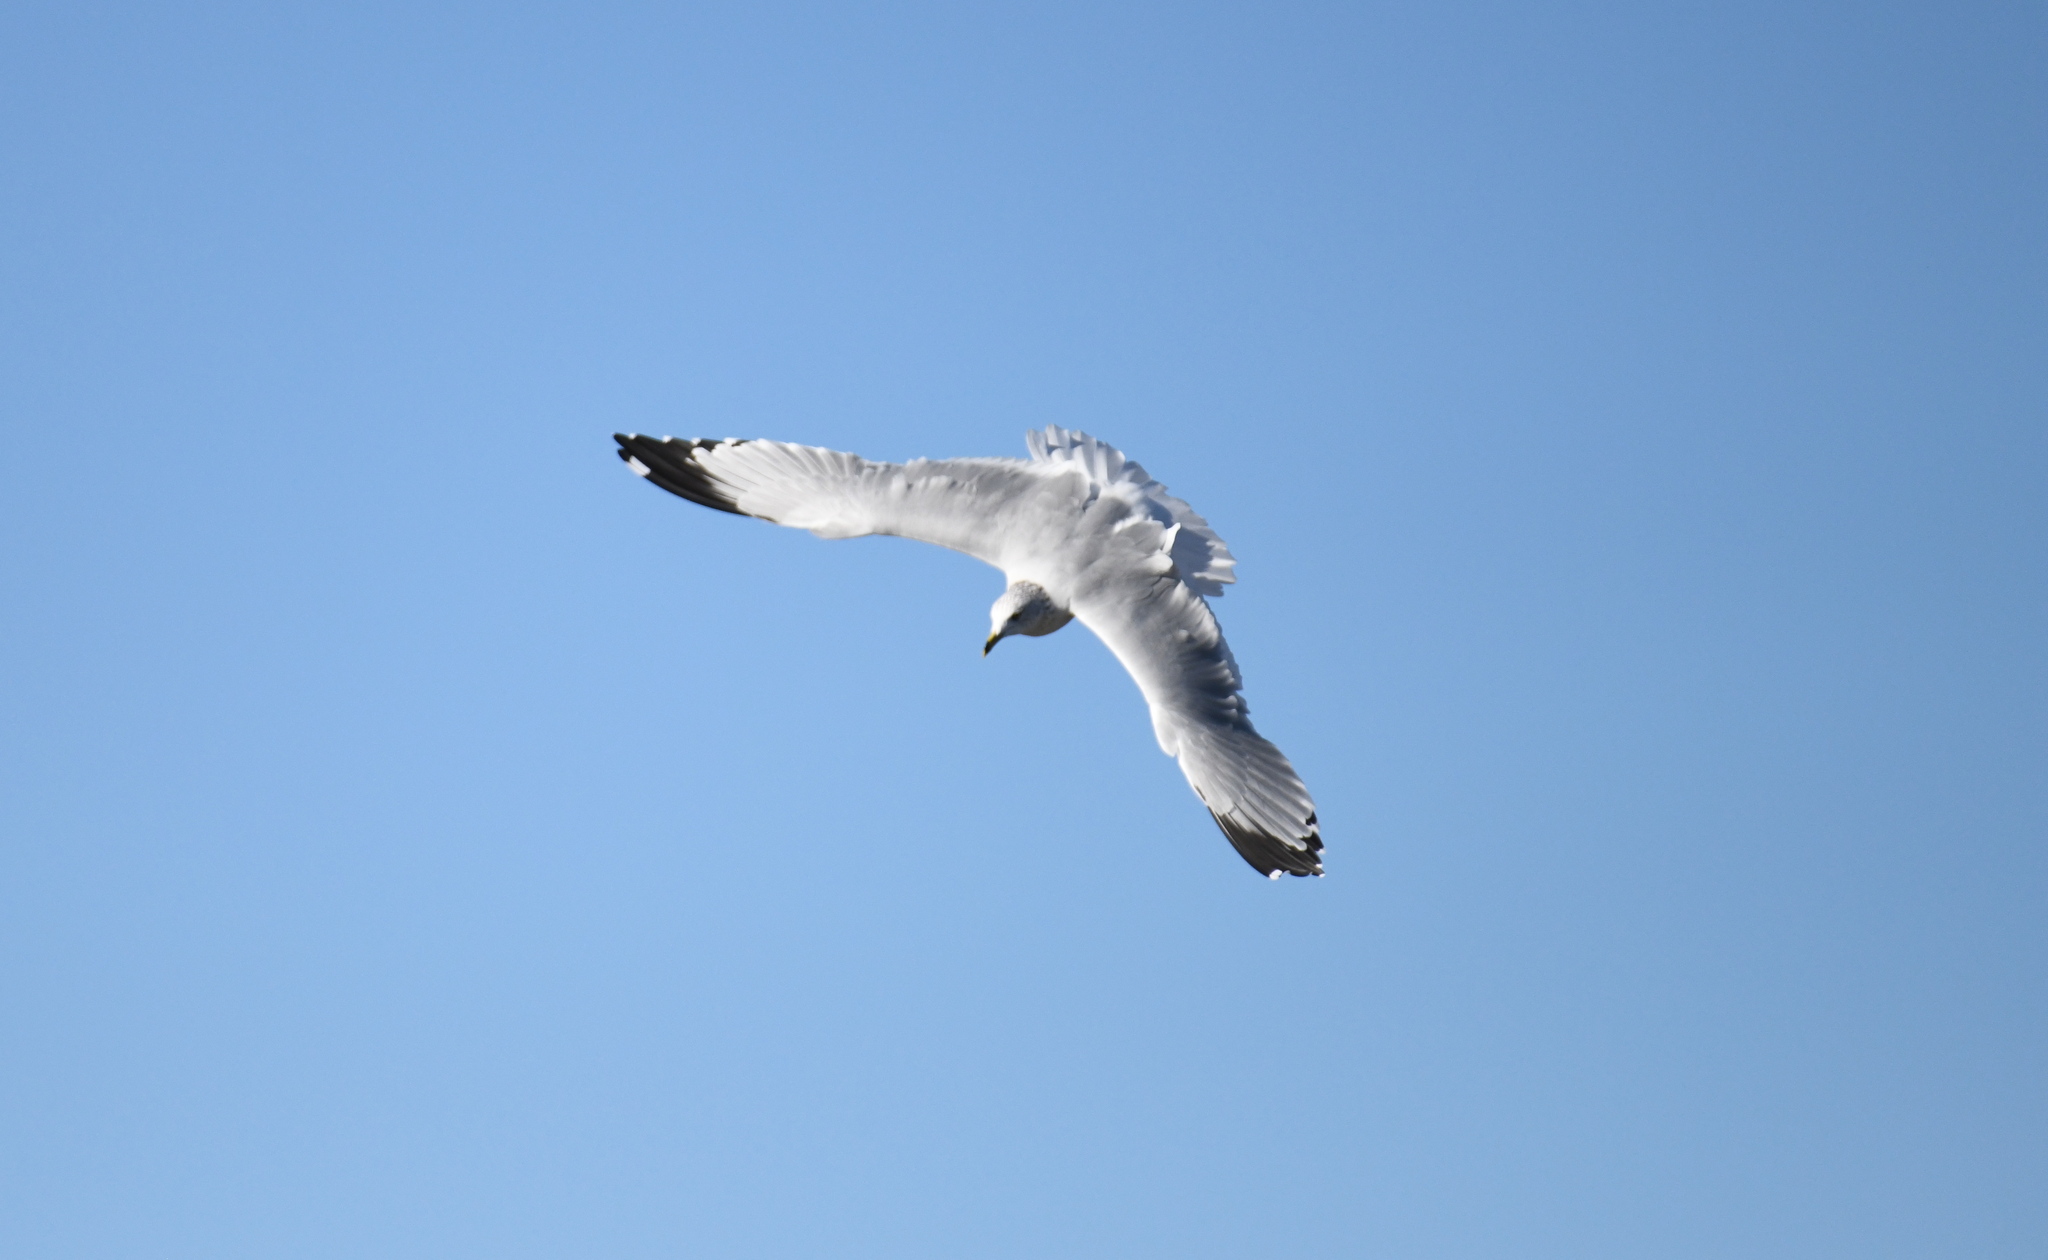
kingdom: Animalia
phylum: Chordata
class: Aves
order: Charadriiformes
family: Laridae
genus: Larus
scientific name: Larus delawarensis
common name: Ring-billed gull
